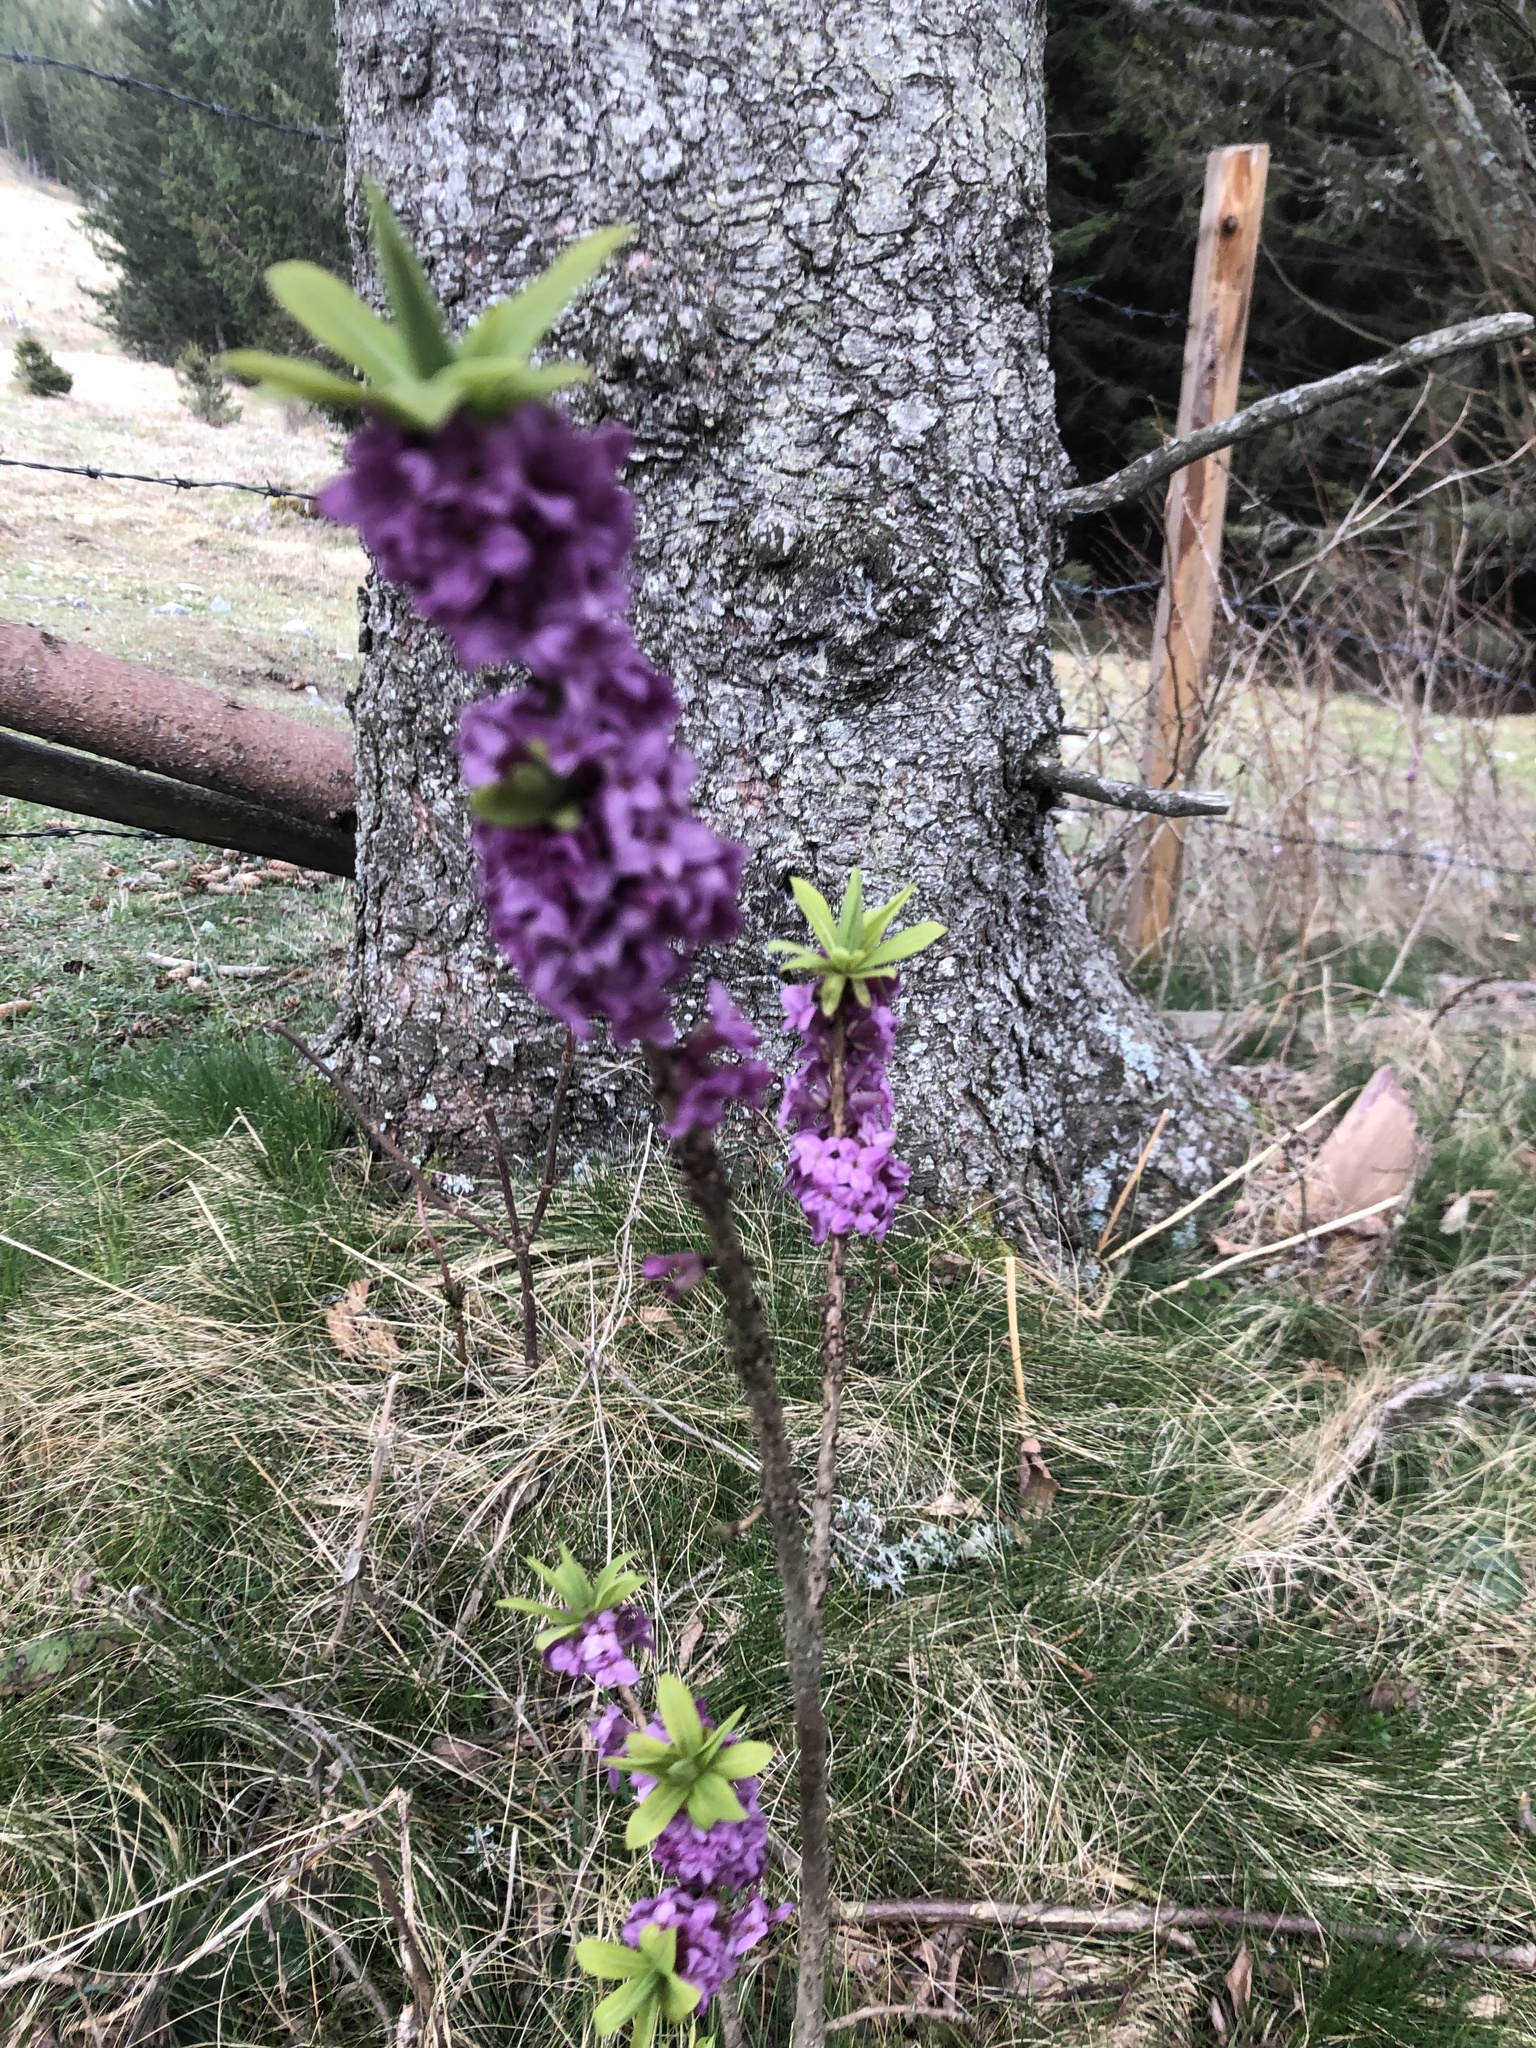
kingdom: Plantae
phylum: Tracheophyta
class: Magnoliopsida
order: Malvales
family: Thymelaeaceae
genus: Daphne
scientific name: Daphne mezereum
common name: Mezereon
